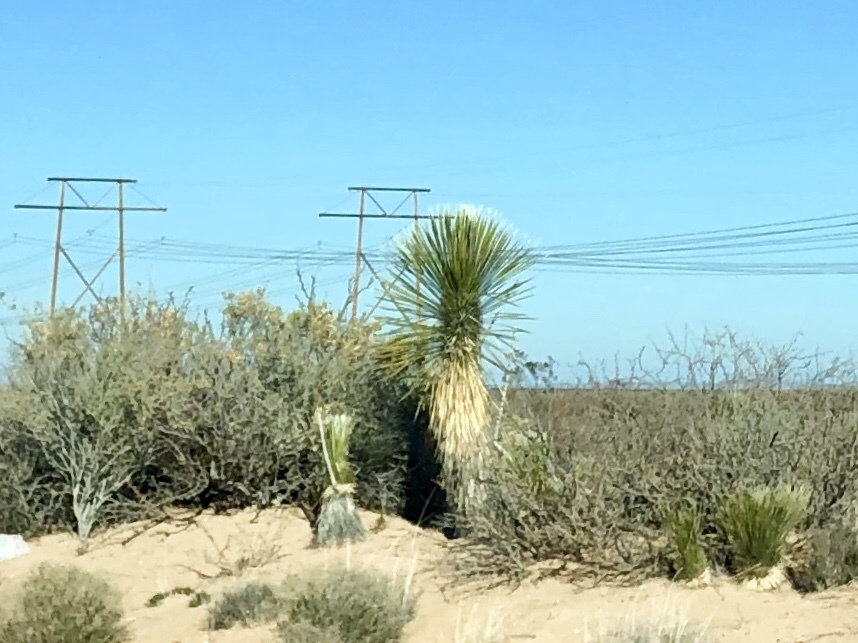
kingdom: Plantae
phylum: Tracheophyta
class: Liliopsida
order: Asparagales
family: Asparagaceae
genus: Yucca
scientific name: Yucca elata
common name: Palmella
